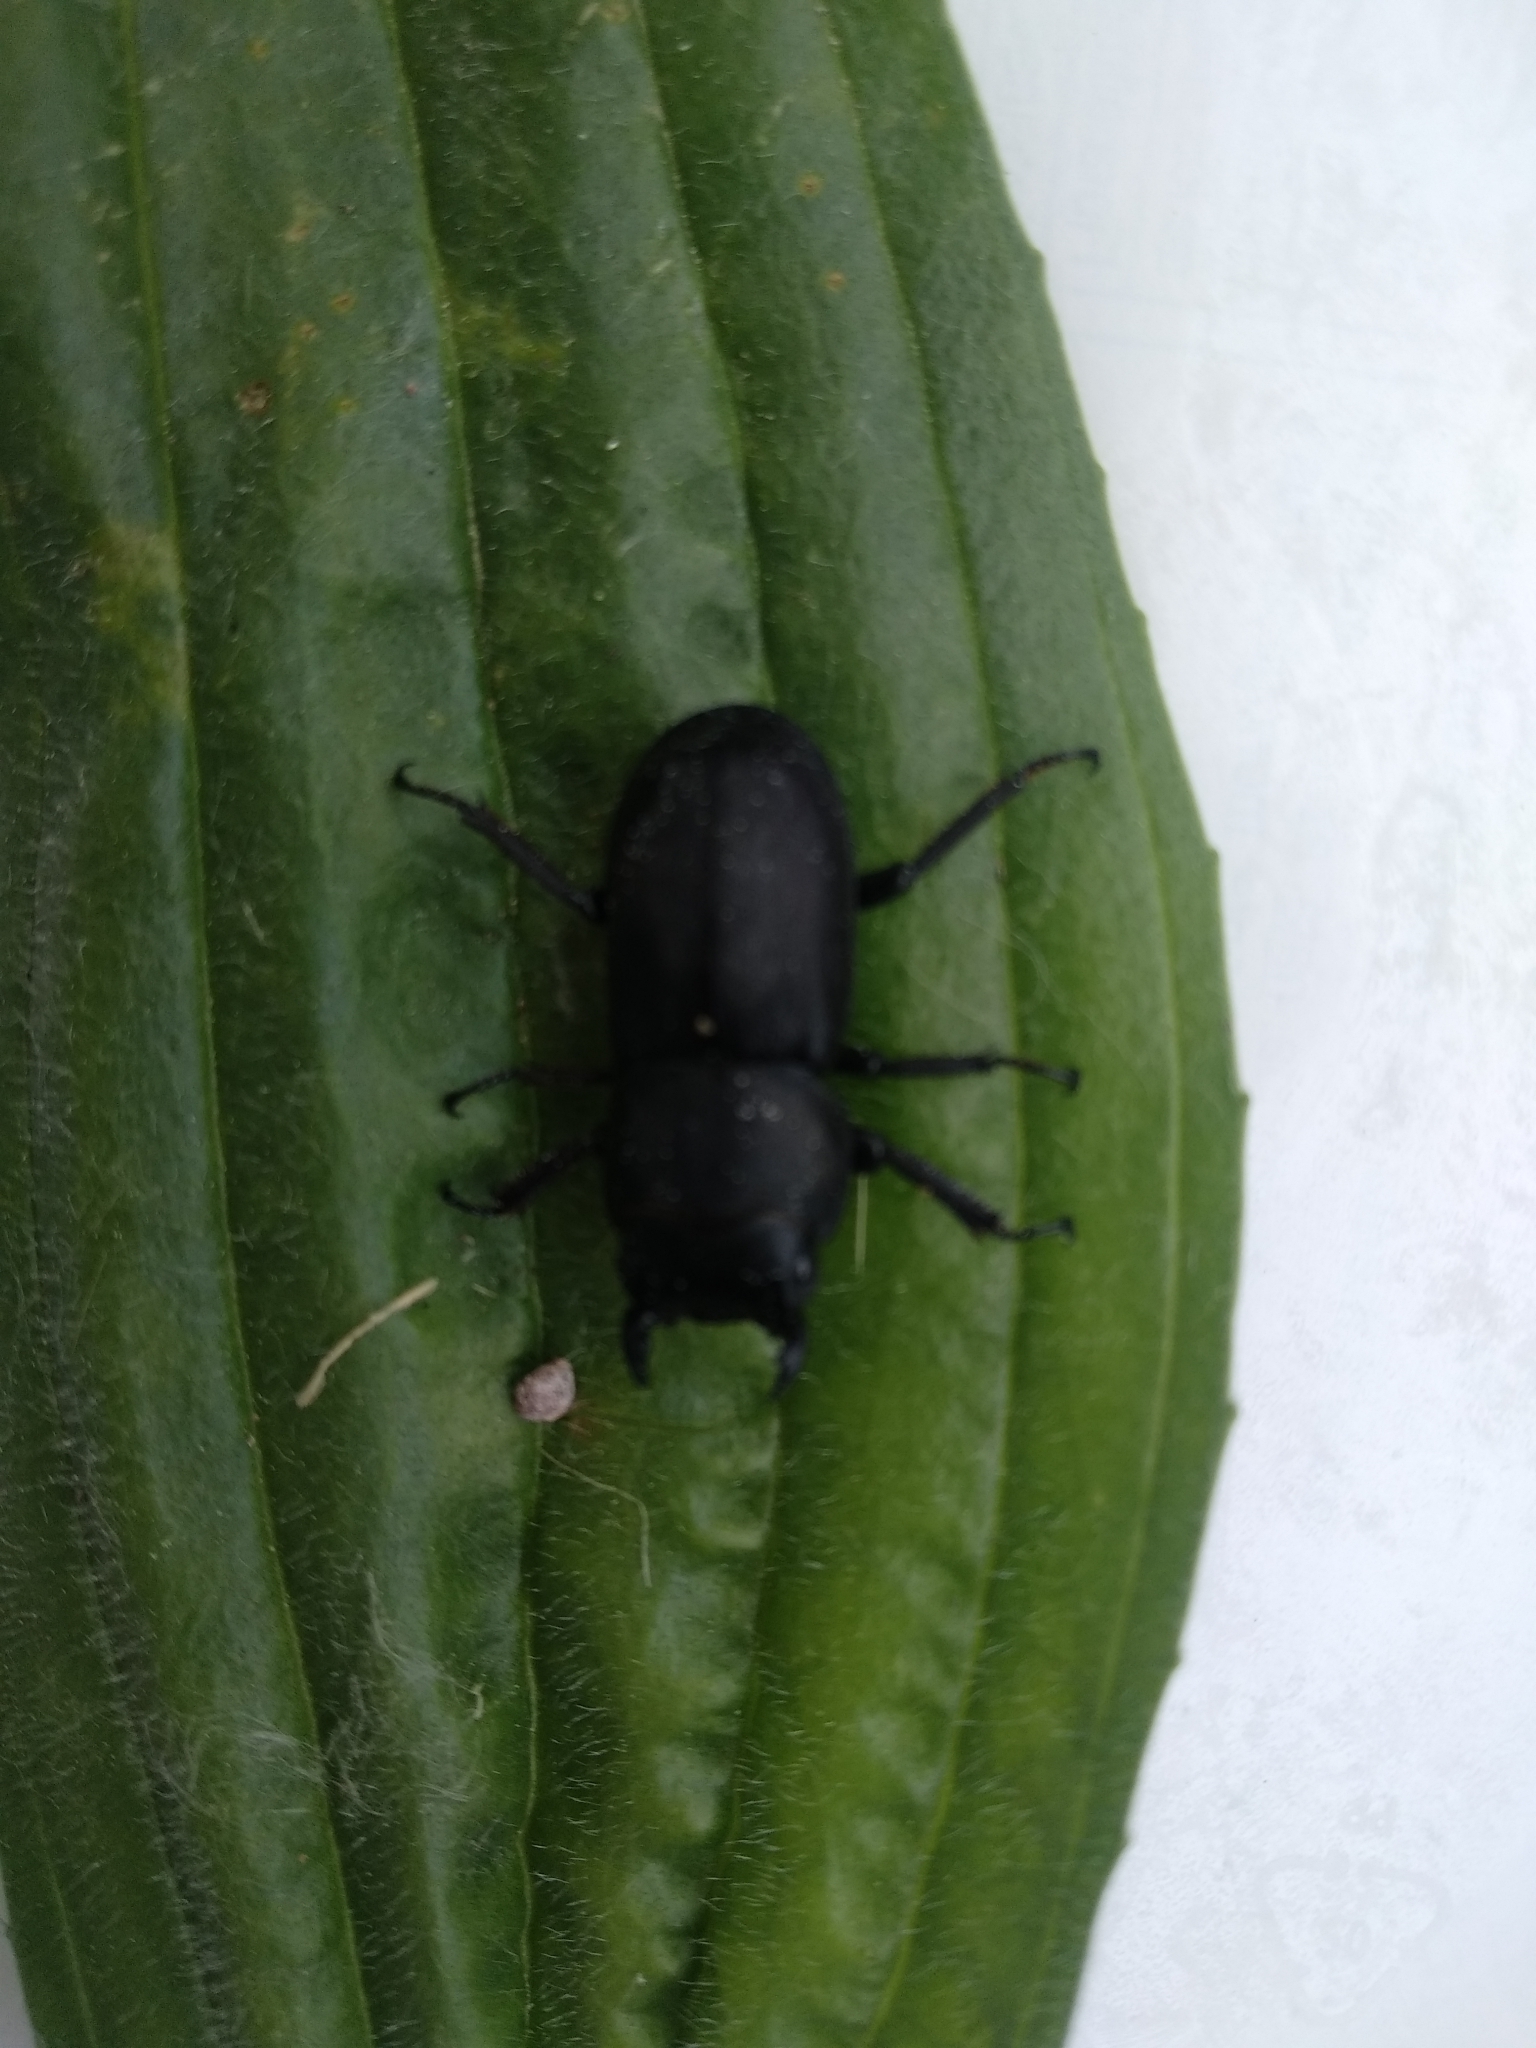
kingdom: Animalia
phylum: Arthropoda
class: Insecta
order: Coleoptera
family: Lucanidae
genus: Dorcus
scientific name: Dorcus parallelipipedus
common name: Lesser stag beetle
